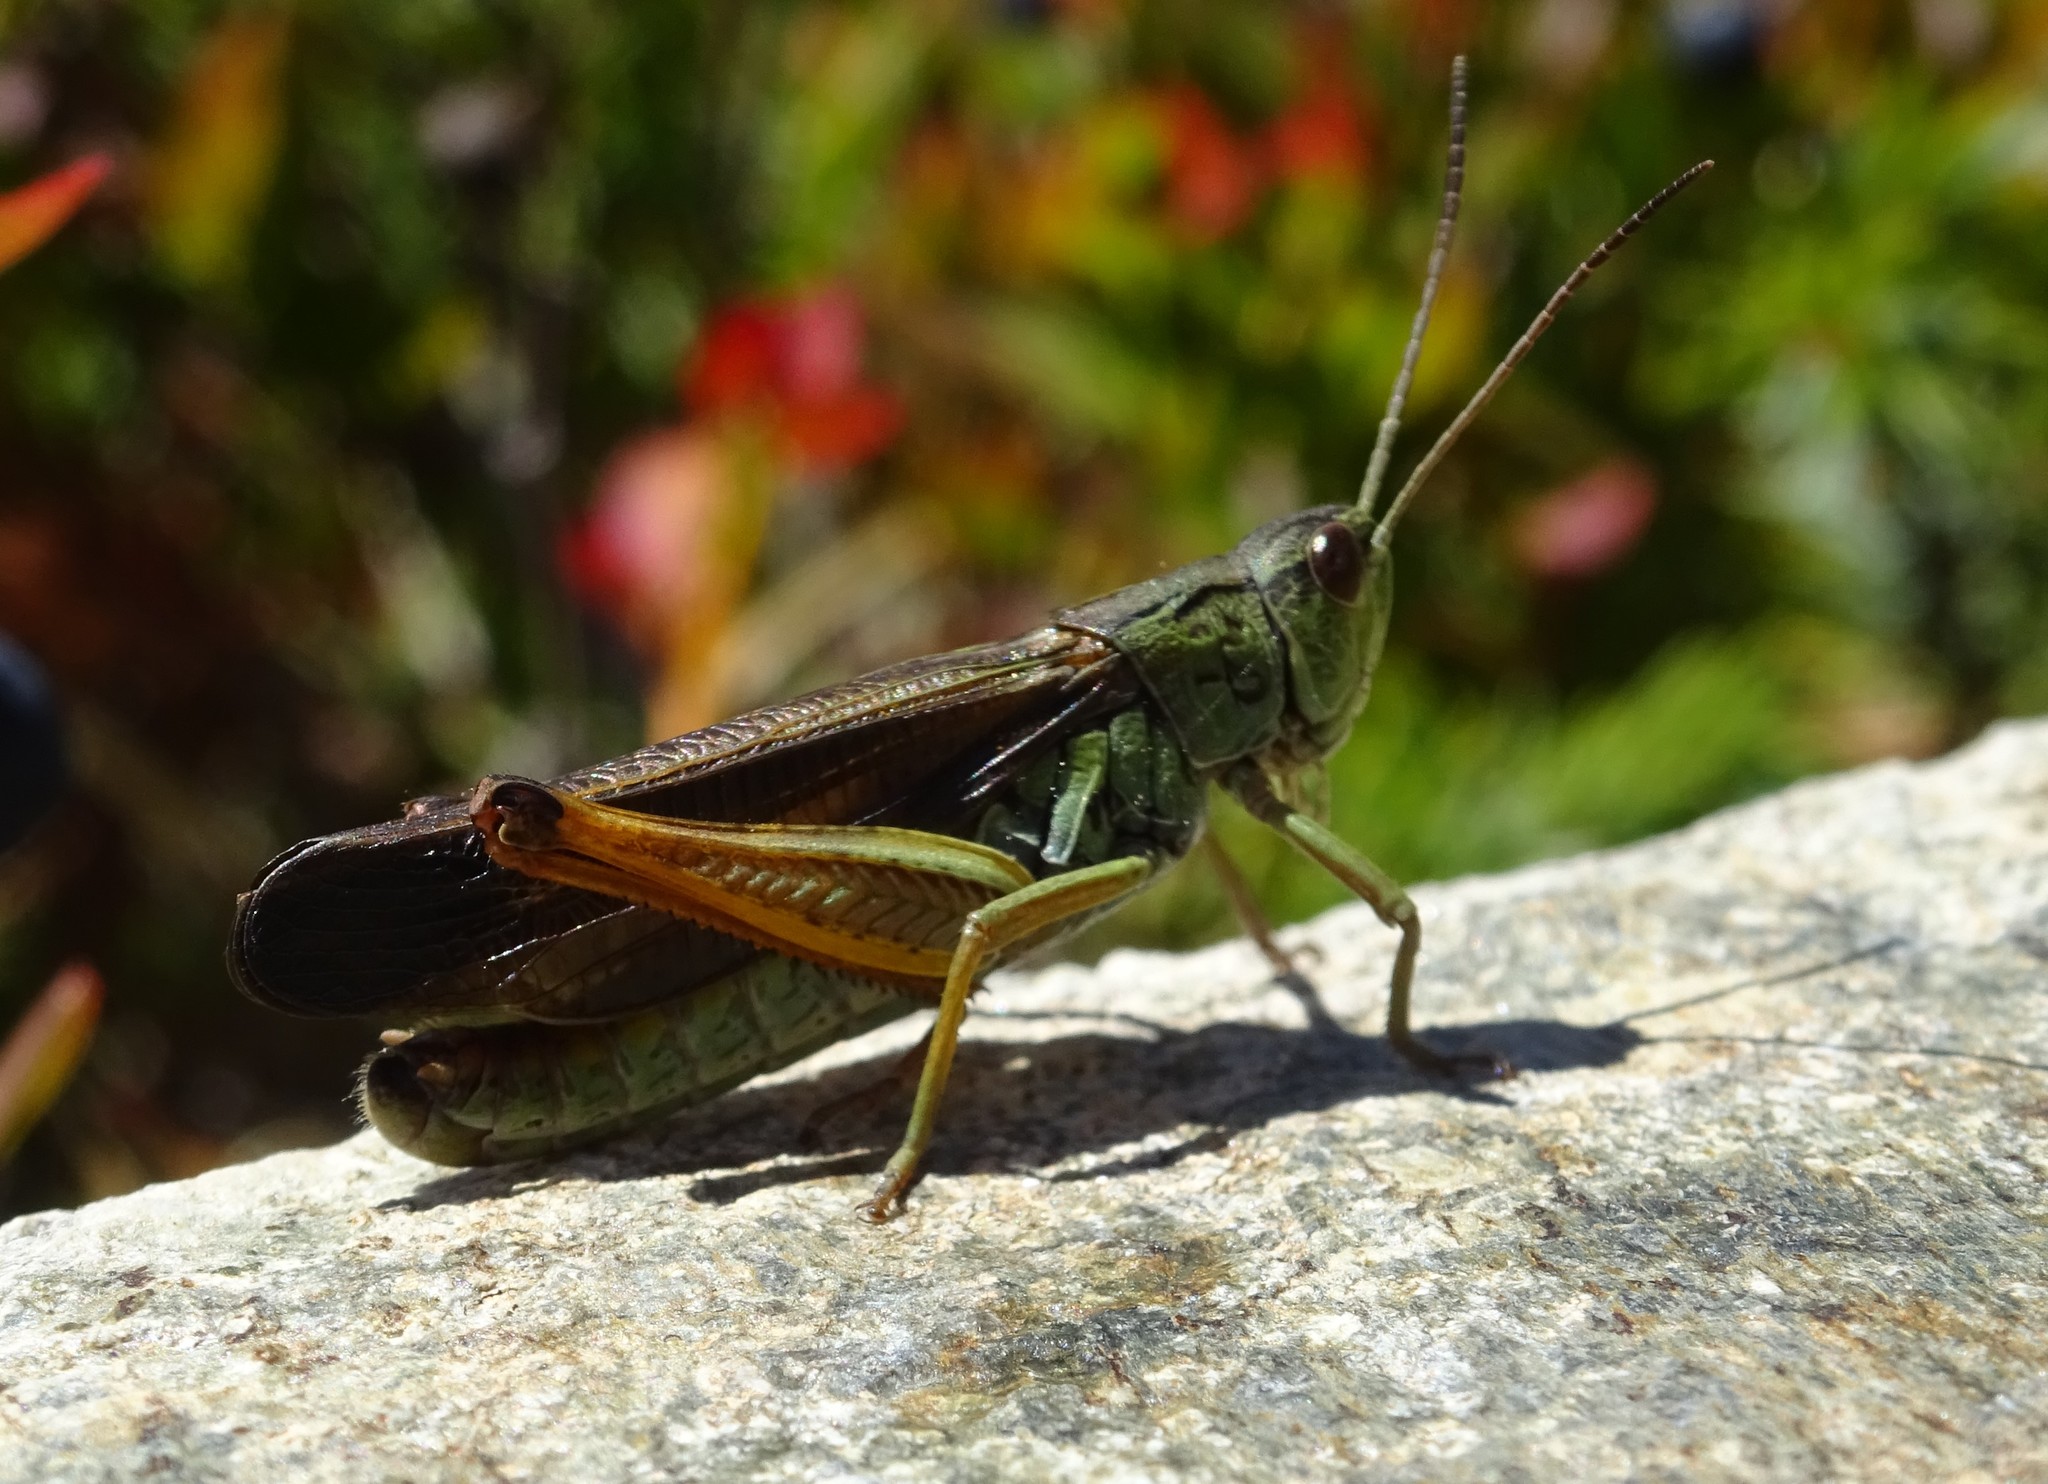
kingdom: Animalia
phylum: Arthropoda
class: Insecta
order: Orthoptera
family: Acrididae
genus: Stauroderus
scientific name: Stauroderus scalaris
